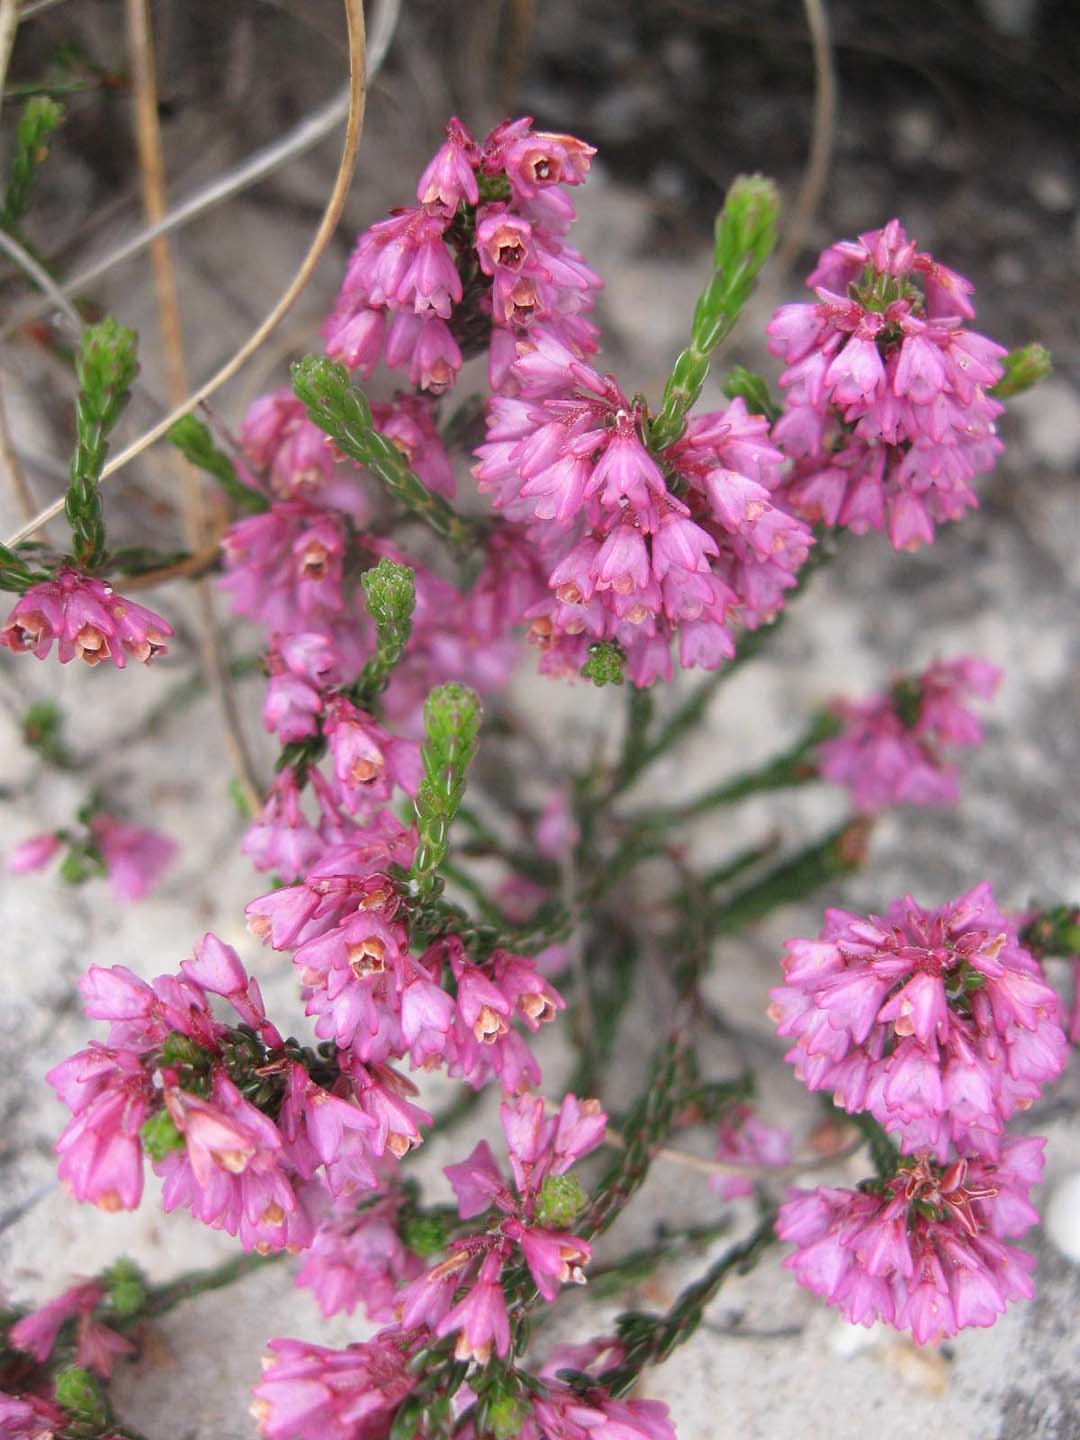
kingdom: Plantae
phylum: Tracheophyta
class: Magnoliopsida
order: Ericales
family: Ericaceae
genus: Erica
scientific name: Erica gnaphaloides
